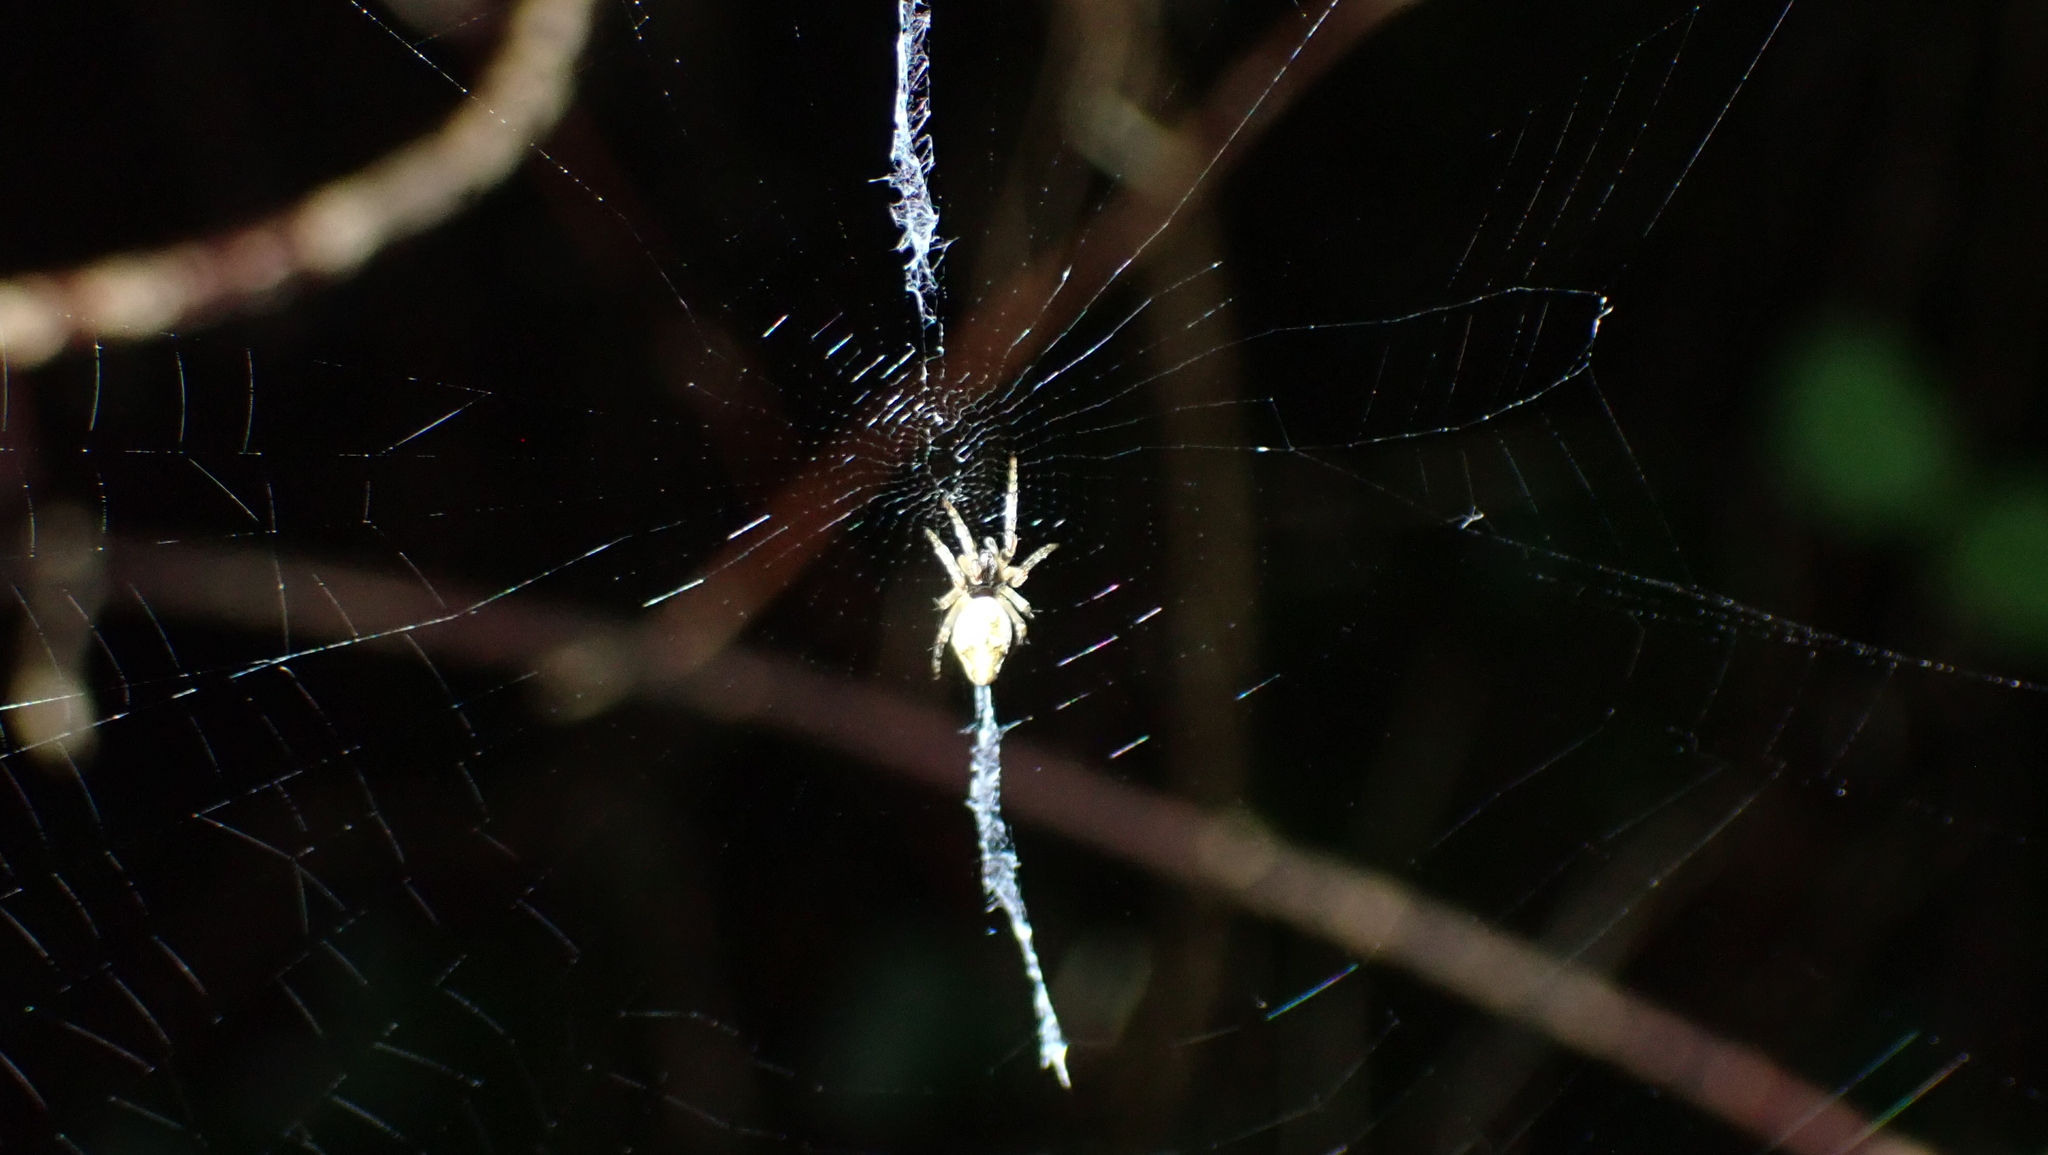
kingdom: Animalia
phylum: Arthropoda
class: Arachnida
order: Araneae
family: Araneidae
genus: Cyclosa
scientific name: Cyclosa conica
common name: Conical trashline orbweaver
